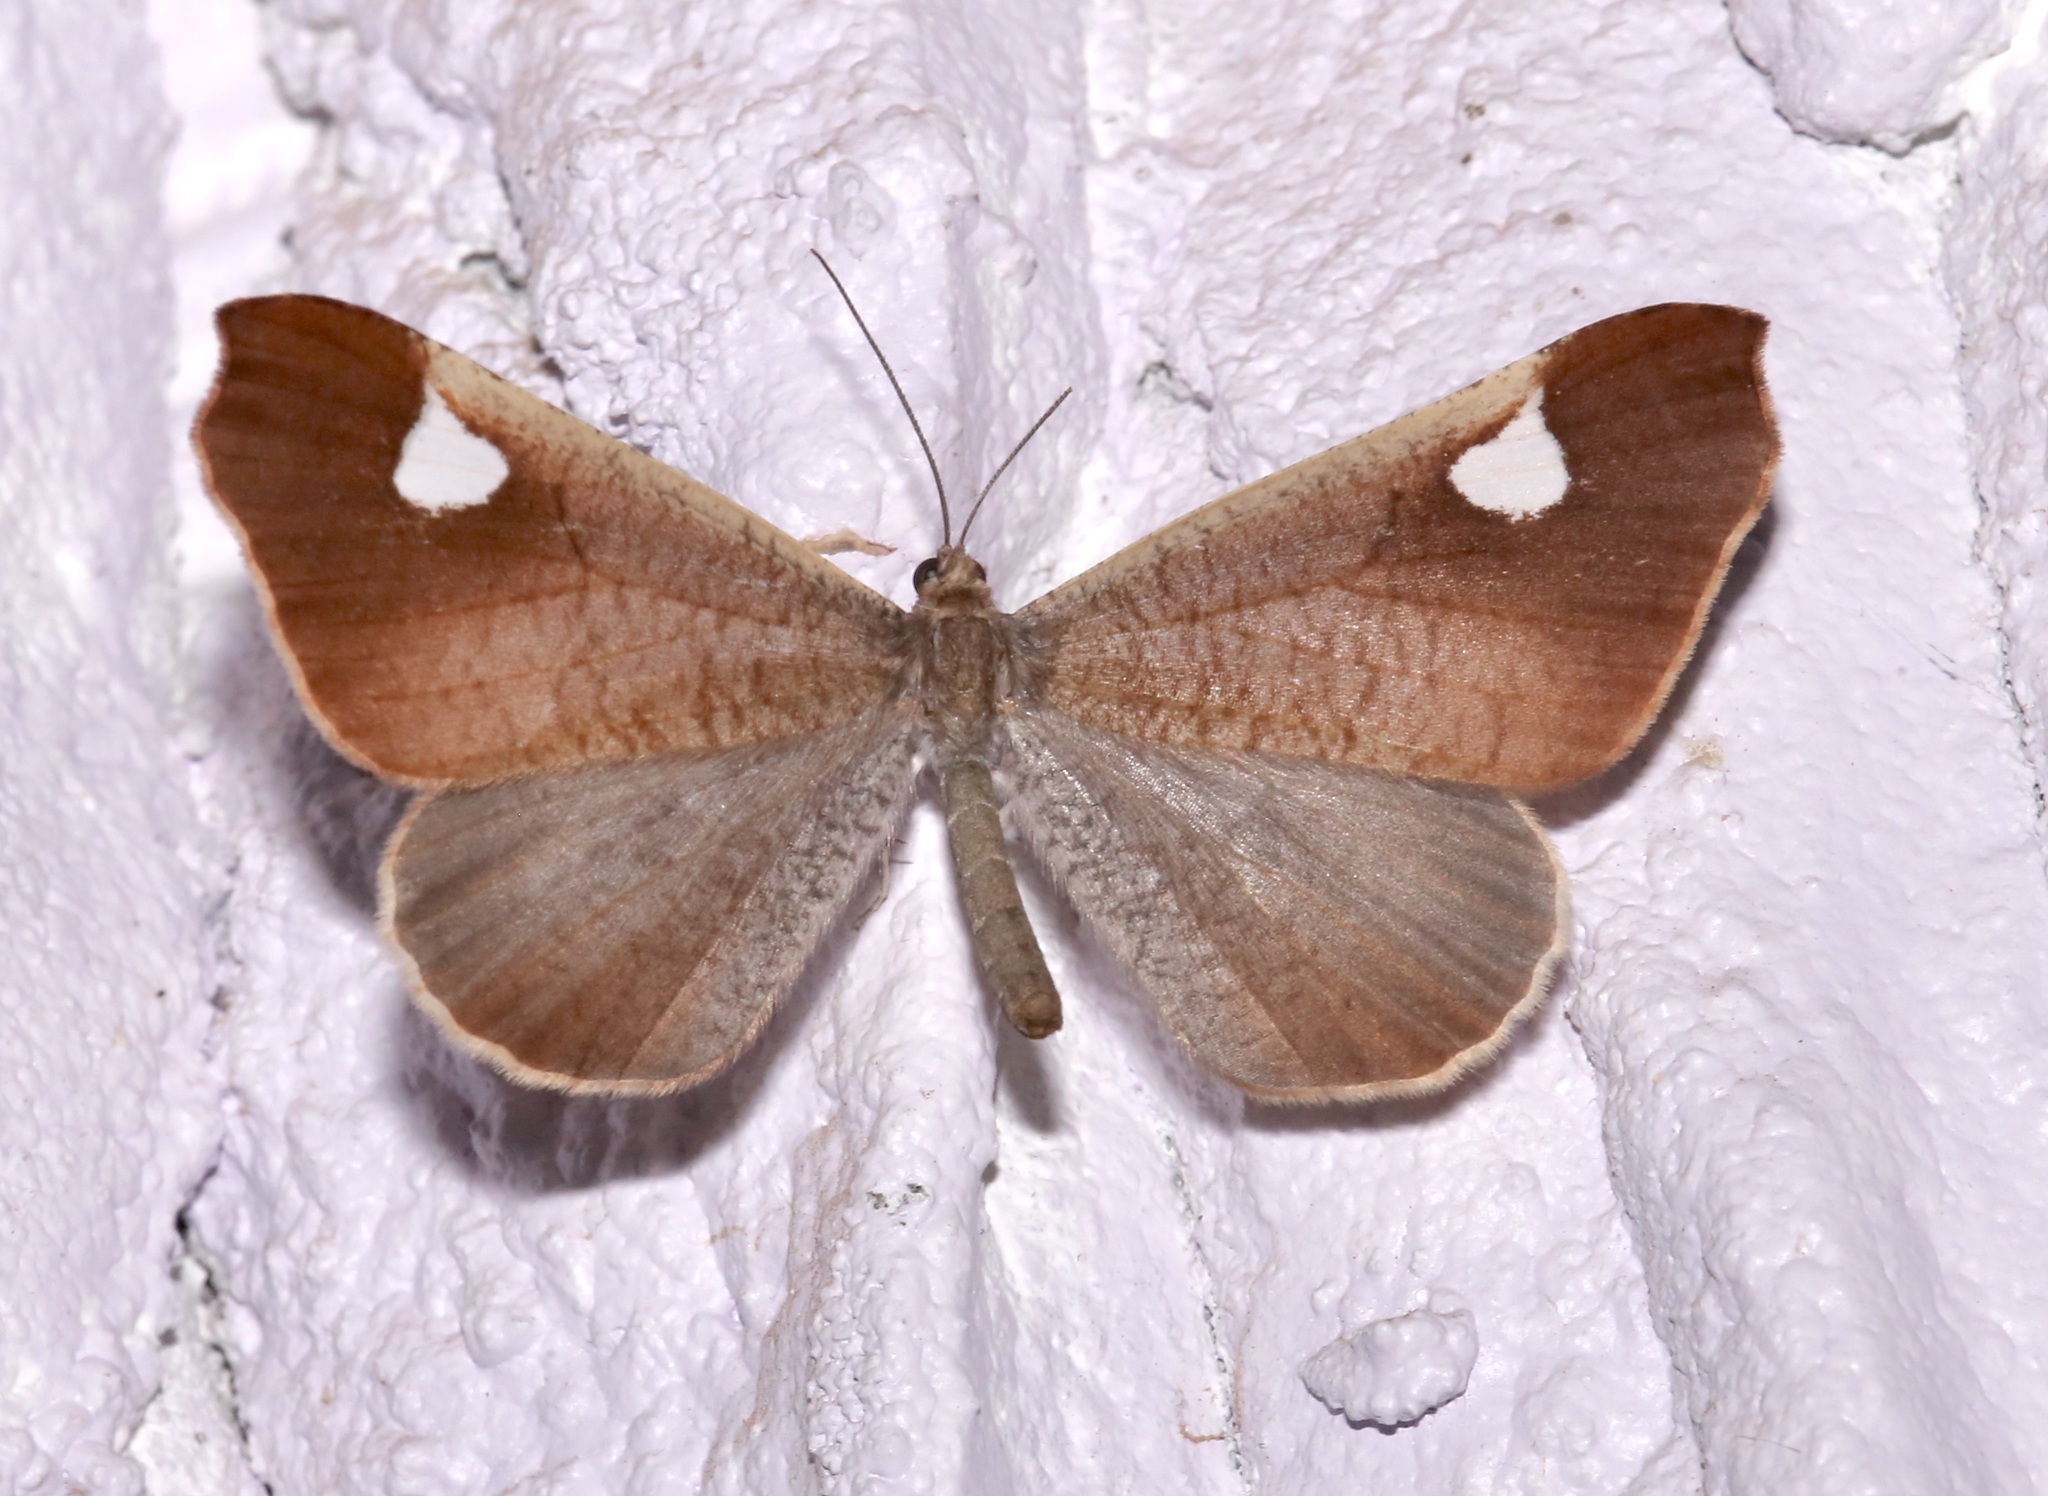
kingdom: Animalia
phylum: Arthropoda
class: Insecta
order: Lepidoptera
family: Hedylidae
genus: Macrosoma
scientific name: Macrosoma albimacula
